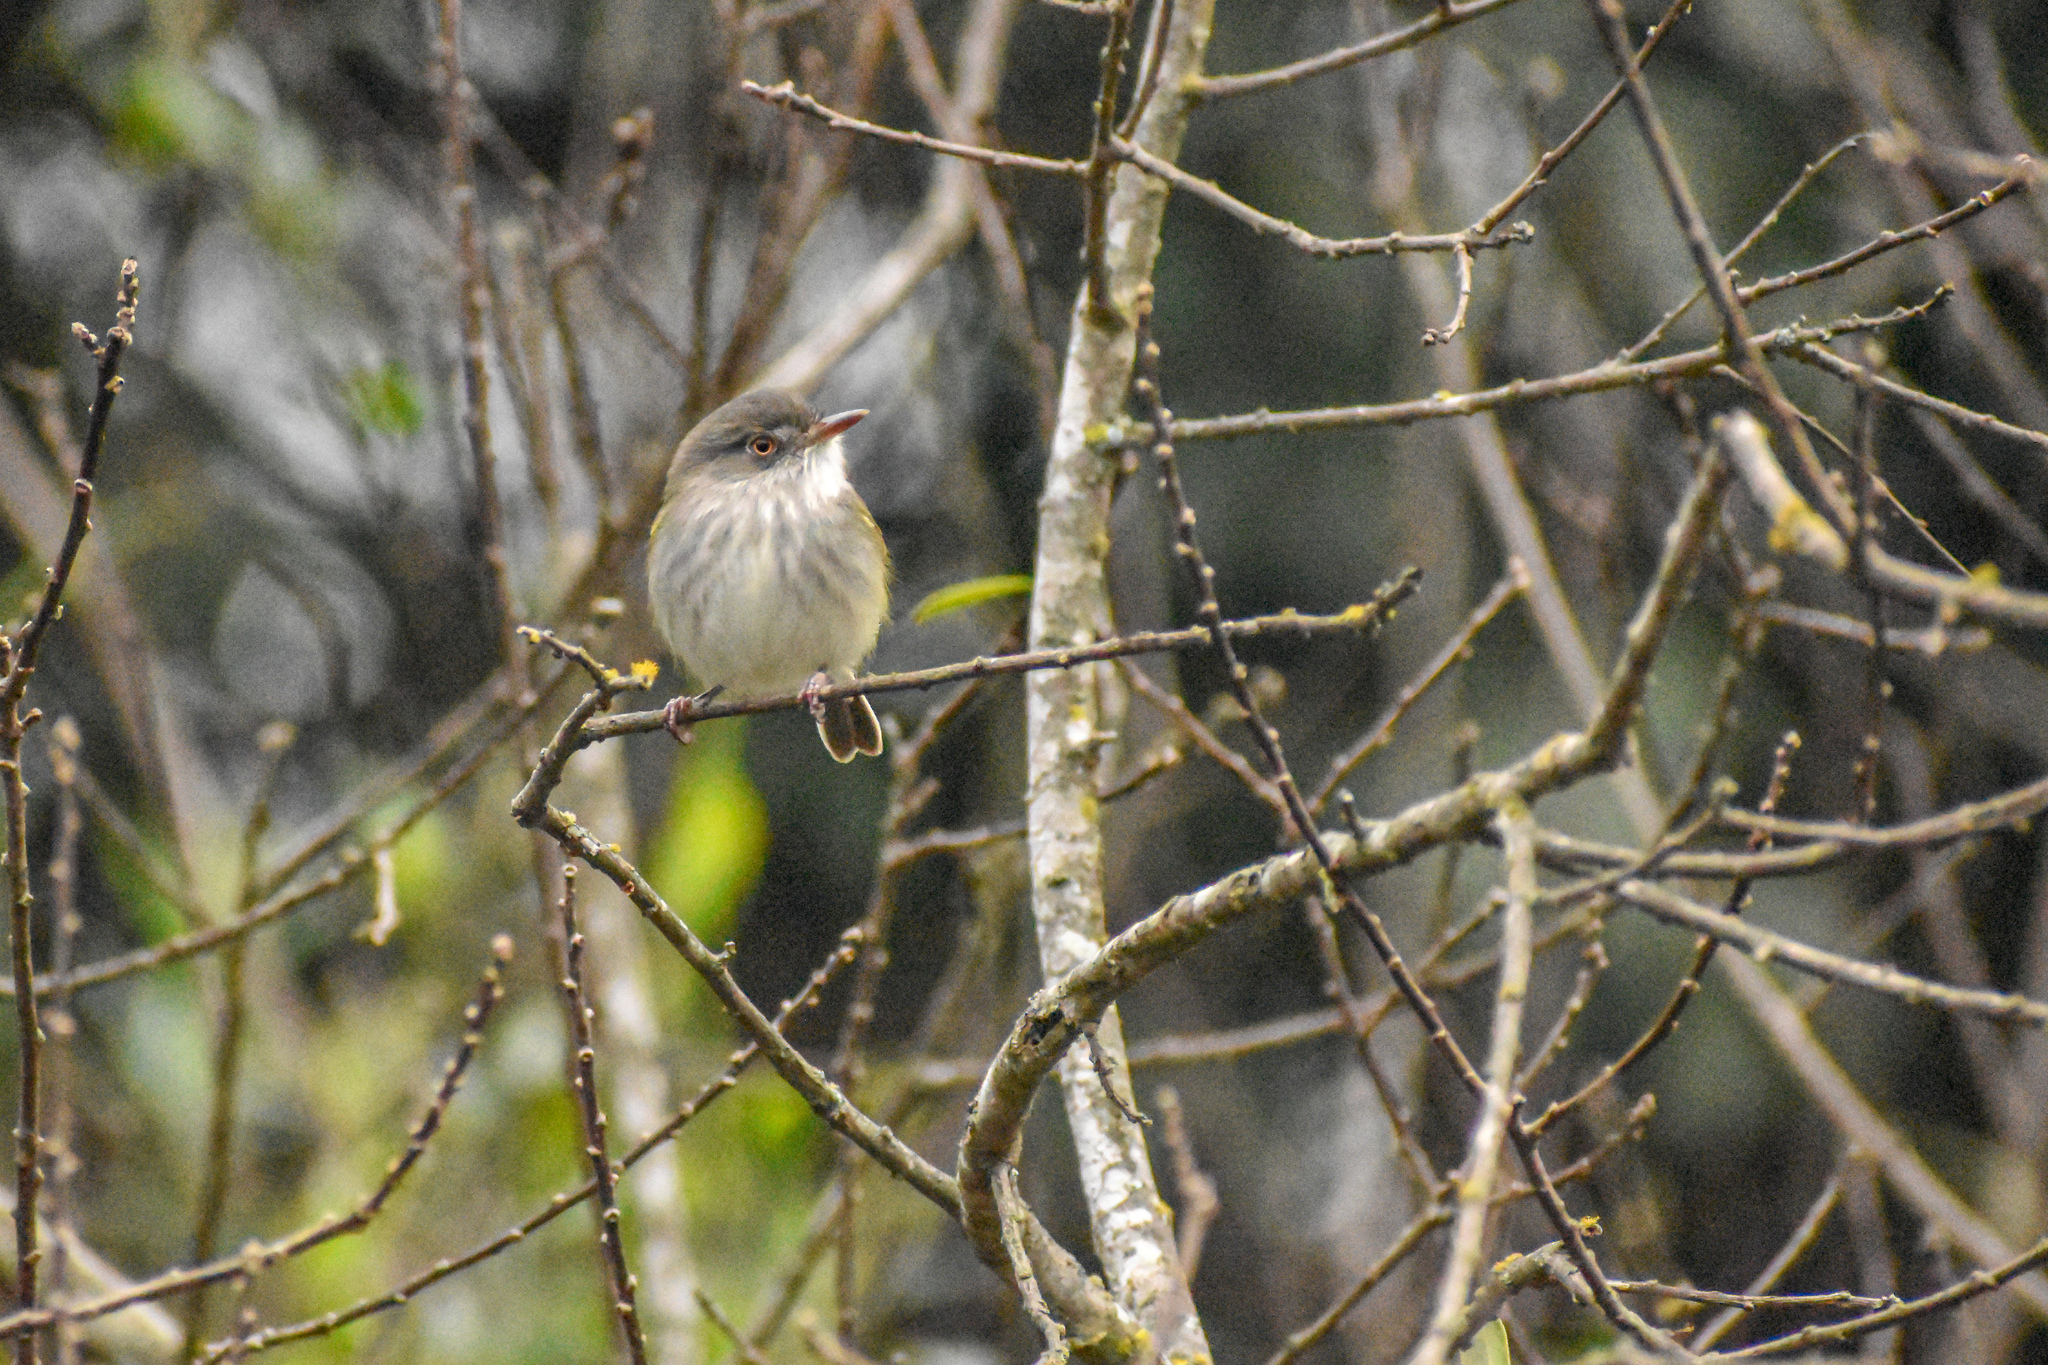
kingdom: Animalia
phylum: Chordata
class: Aves
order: Passeriformes
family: Tyrannidae
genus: Hemitriccus
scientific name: Hemitriccus margaritaceiventer
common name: Pearly-vented tody-tyrant
